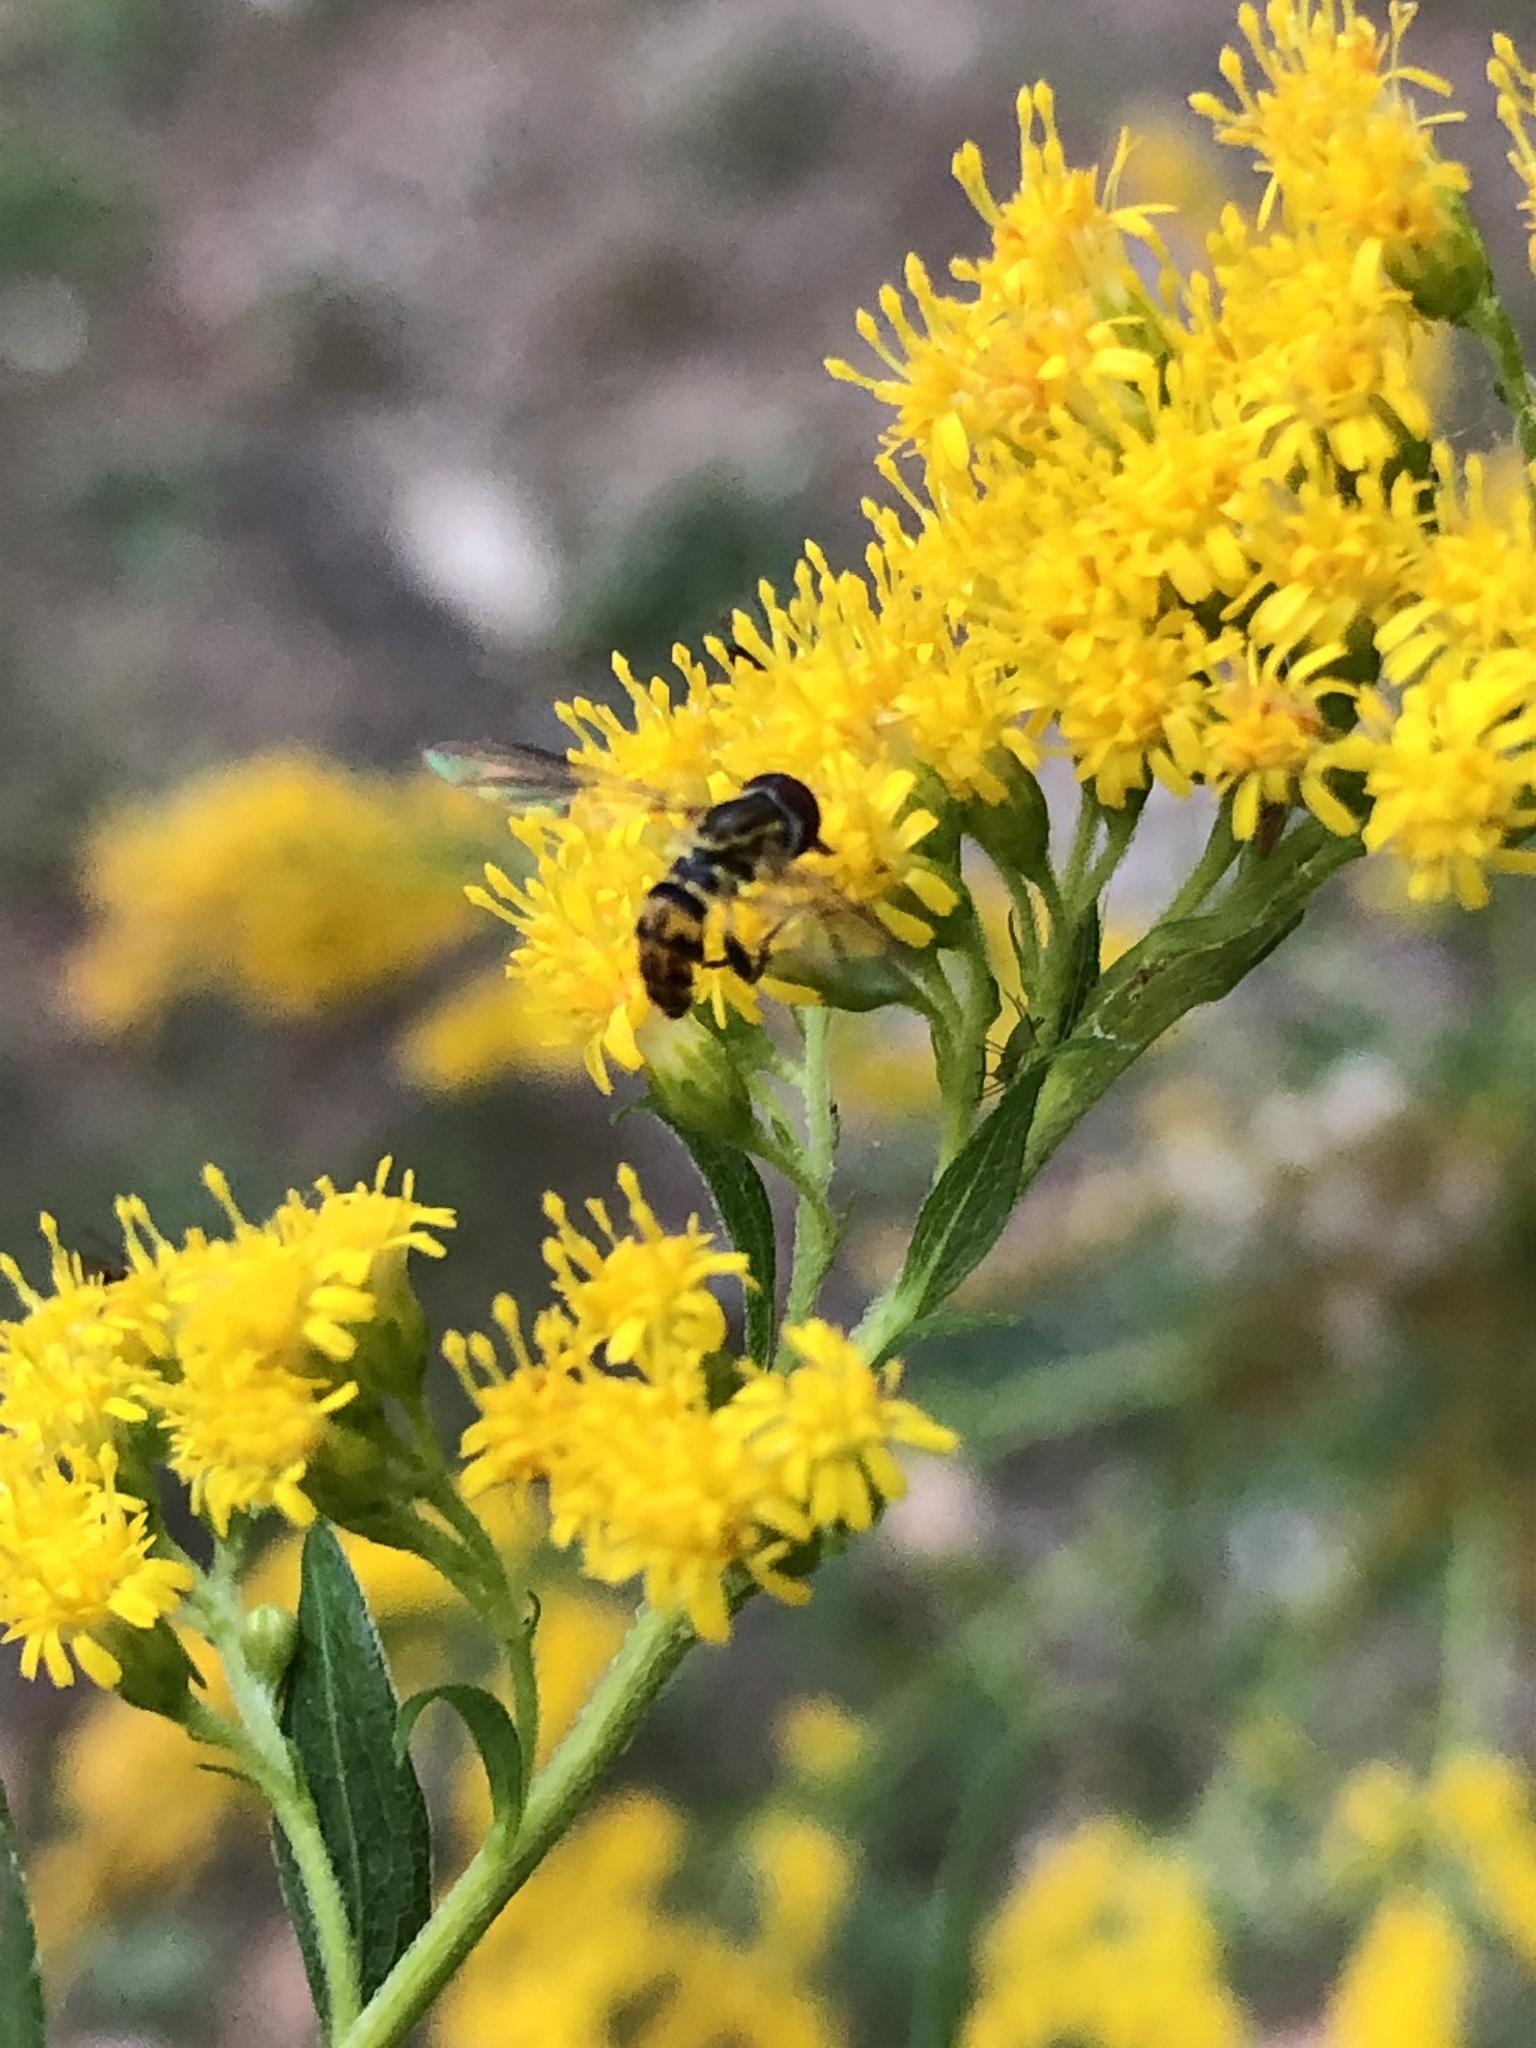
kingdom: Animalia
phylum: Arthropoda
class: Insecta
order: Diptera
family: Syrphidae
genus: Toxomerus
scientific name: Toxomerus geminatus
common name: Eastern calligrapher
